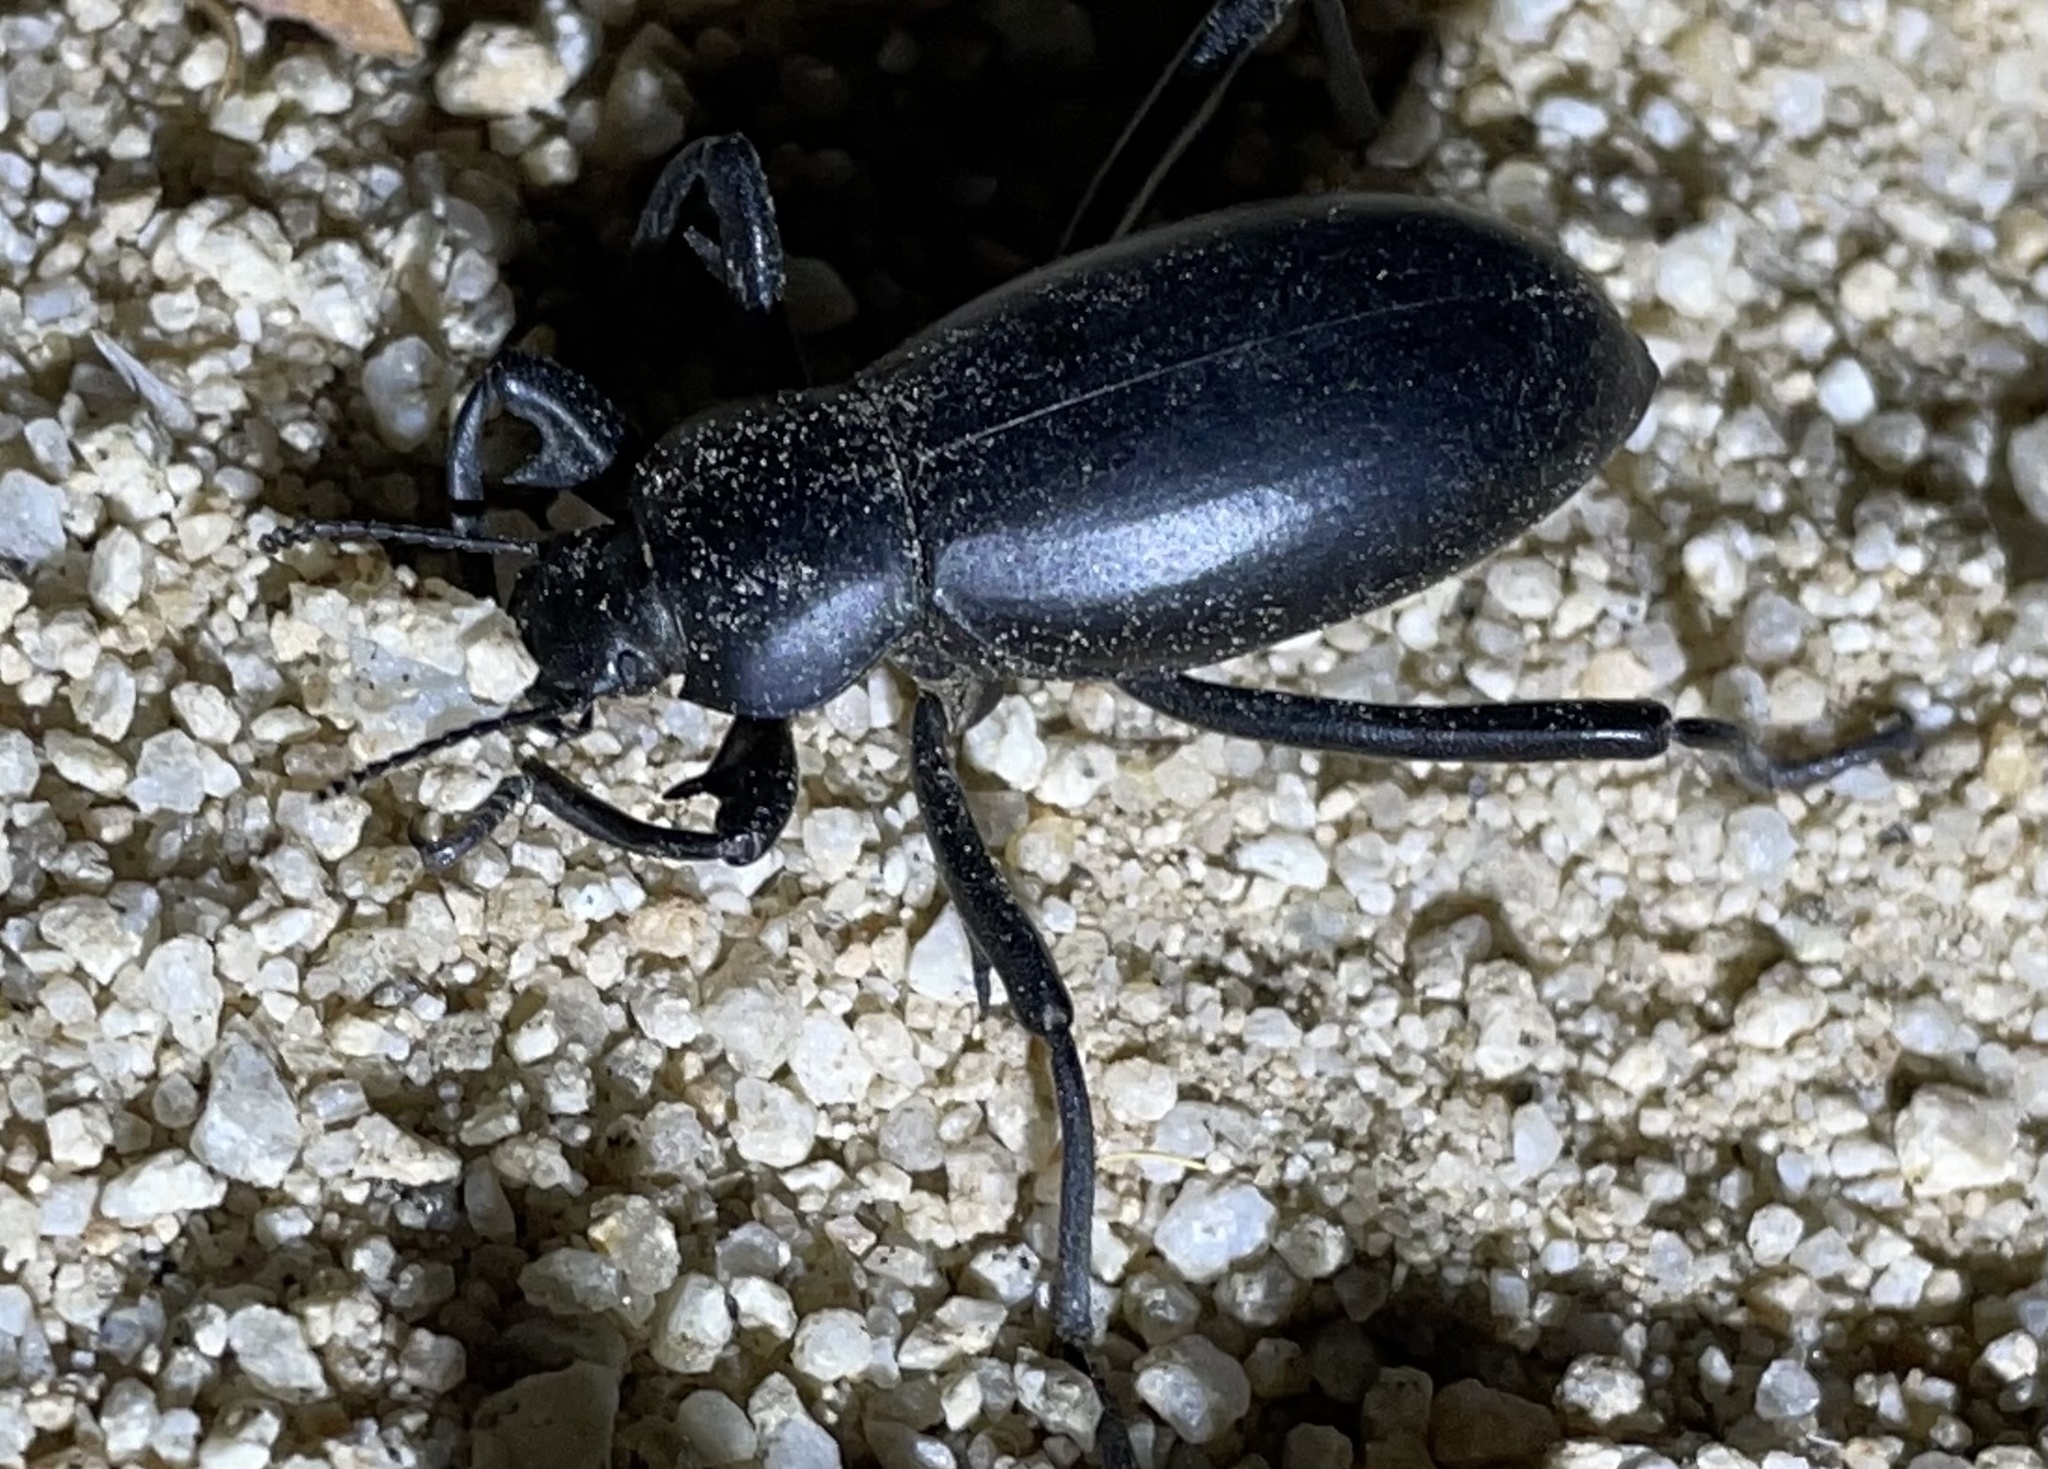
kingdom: Animalia
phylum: Arthropoda
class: Insecta
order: Coleoptera
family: Tenebrionidae
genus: Eleodes
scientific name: Eleodes armata
